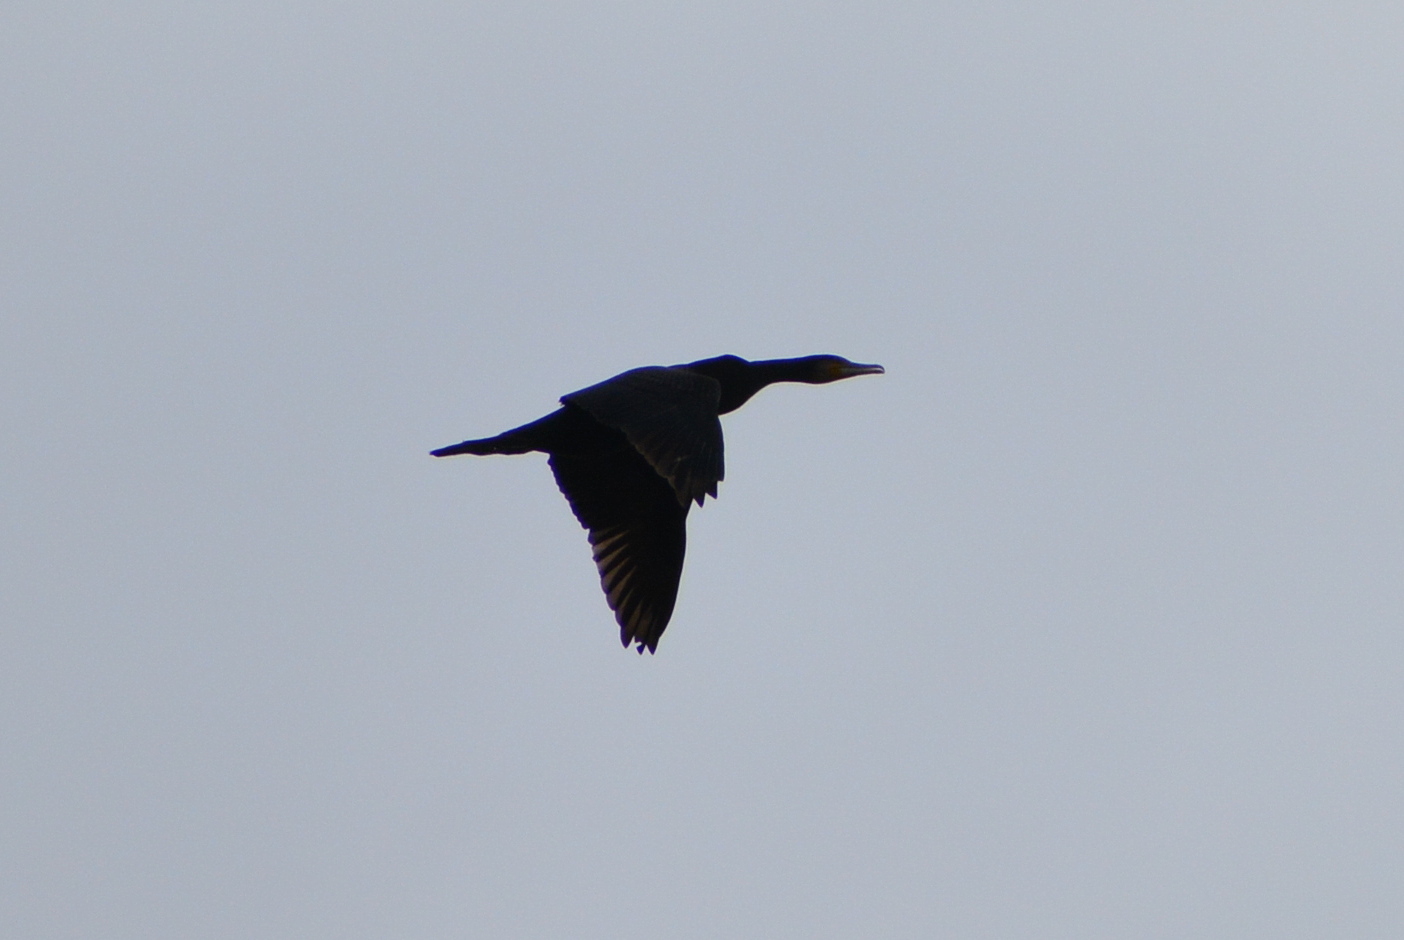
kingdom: Animalia
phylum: Chordata
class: Aves
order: Suliformes
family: Phalacrocoracidae
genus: Phalacrocorax
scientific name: Phalacrocorax carbo
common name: Great cormorant
